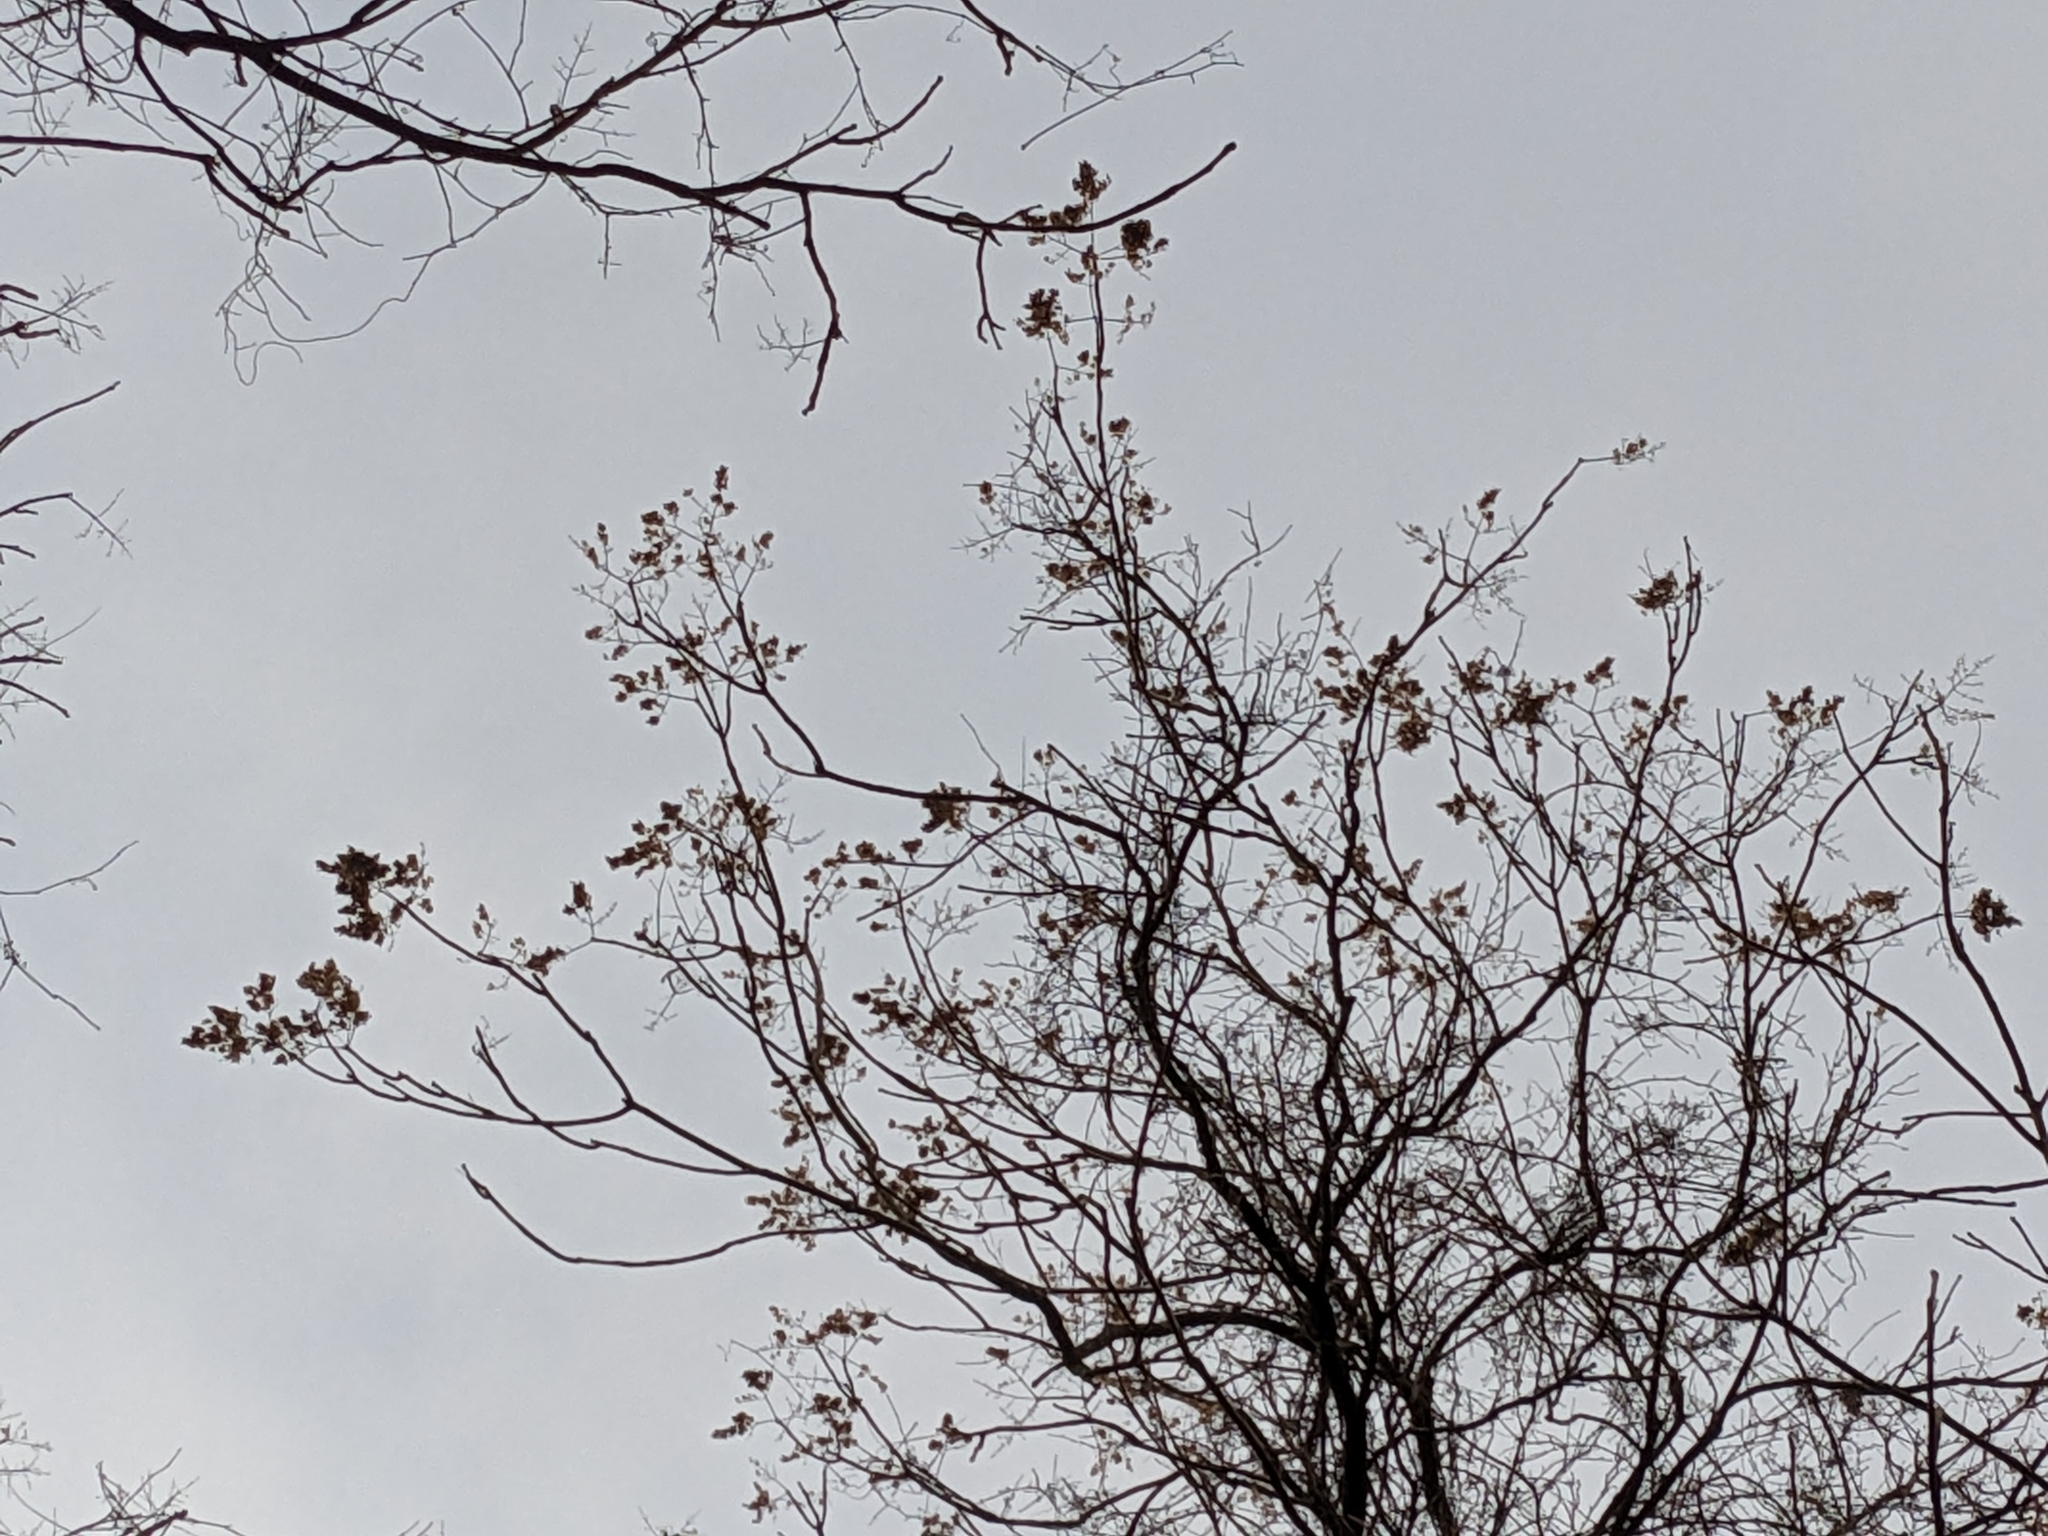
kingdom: Plantae
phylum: Tracheophyta
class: Magnoliopsida
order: Sapindales
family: Simaroubaceae
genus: Ailanthus
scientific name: Ailanthus altissima
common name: Tree-of-heaven
